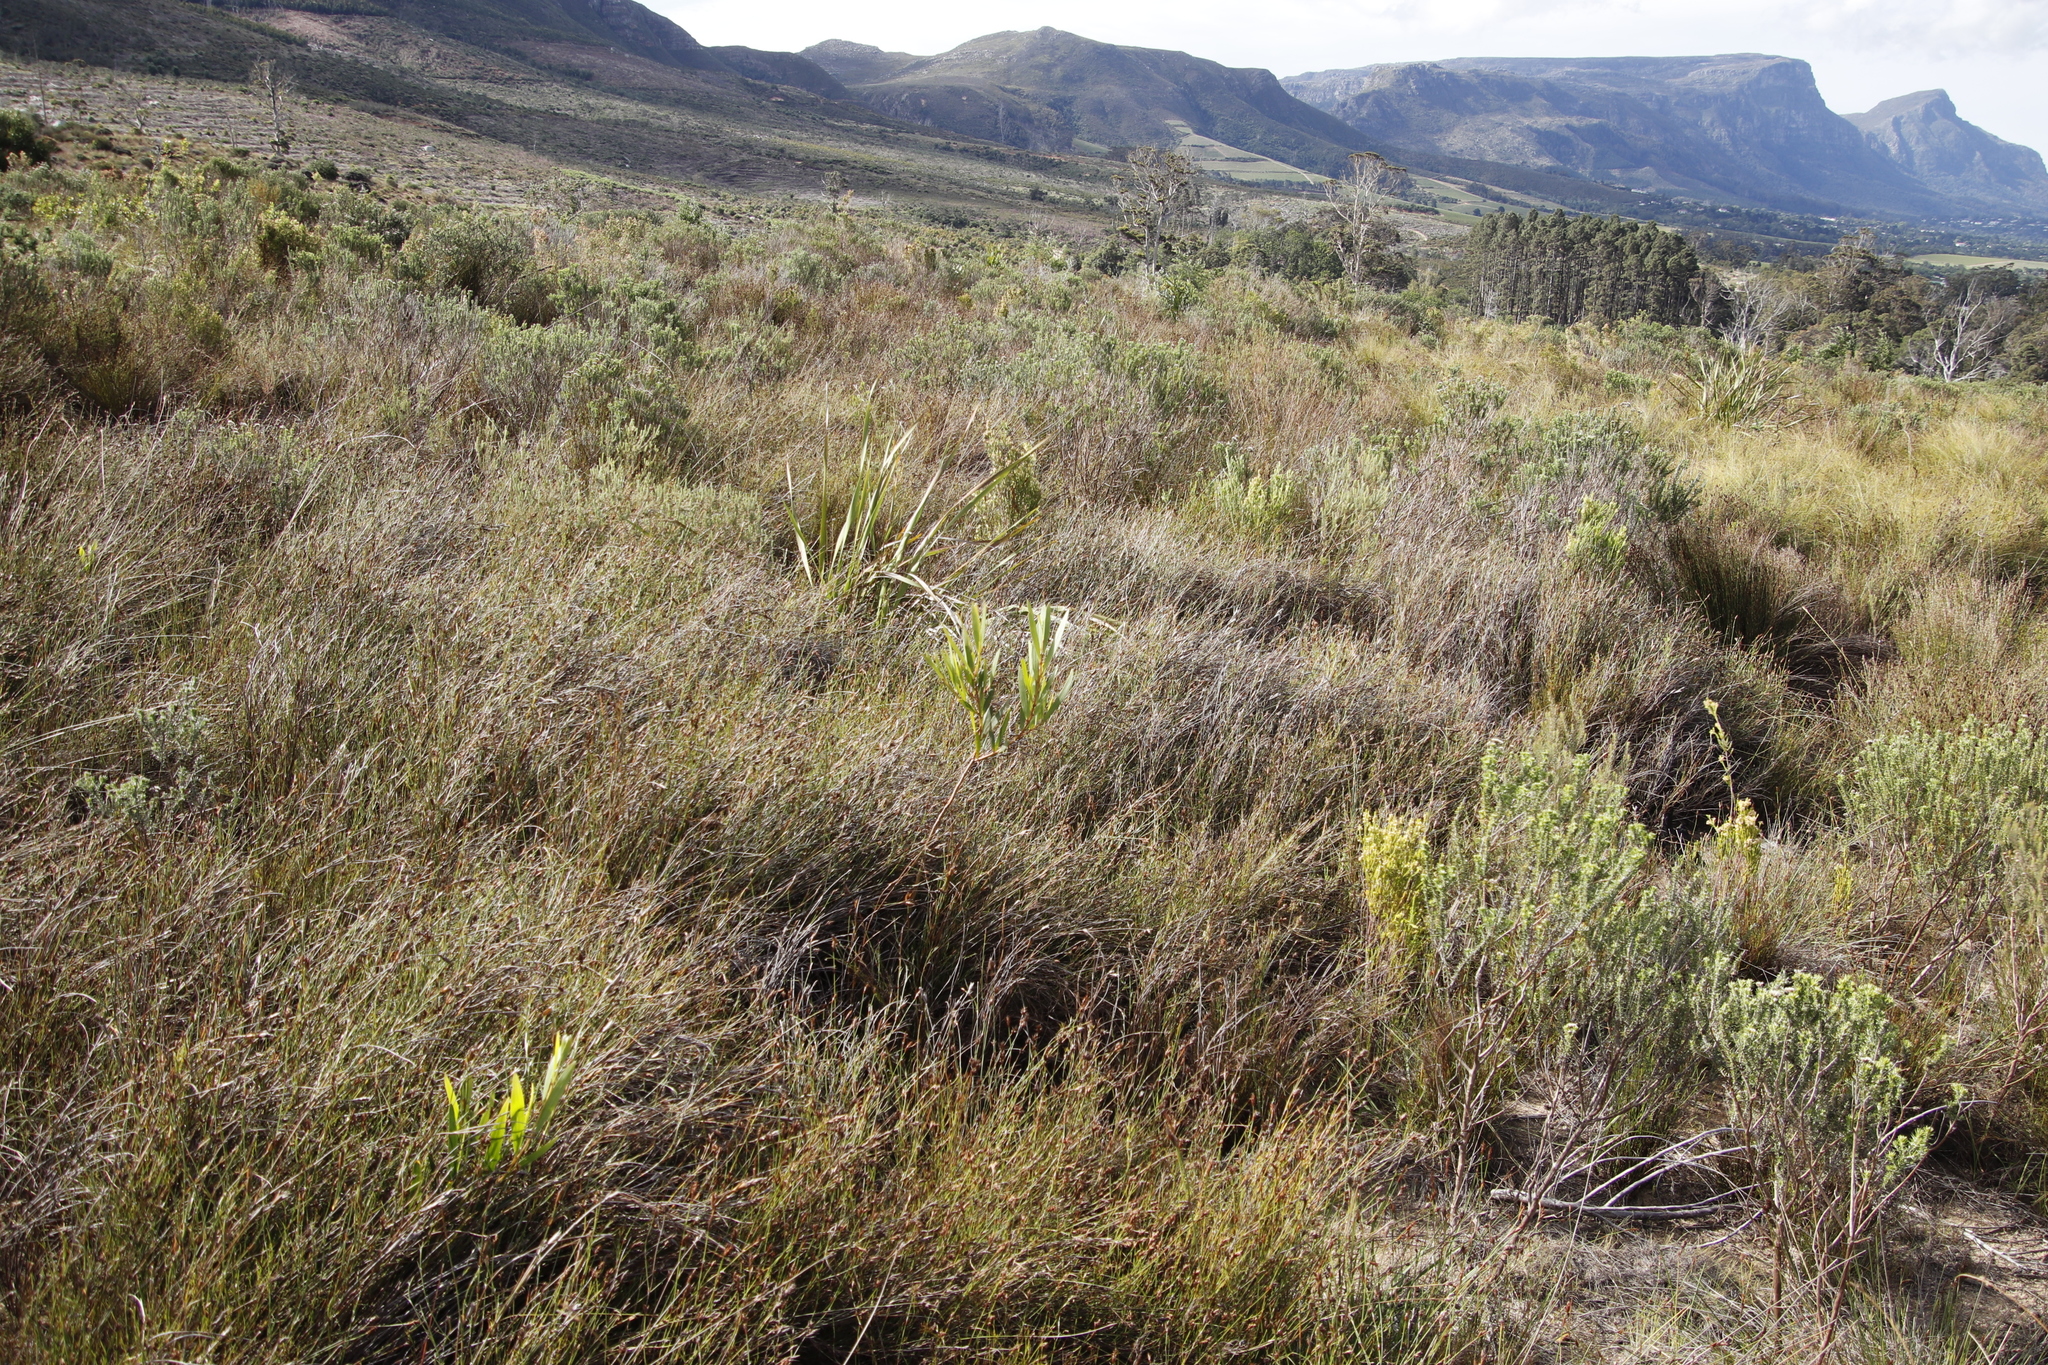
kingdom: Plantae
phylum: Tracheophyta
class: Magnoliopsida
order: Fabales
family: Fabaceae
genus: Acacia
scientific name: Acacia longifolia
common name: Sydney golden wattle
